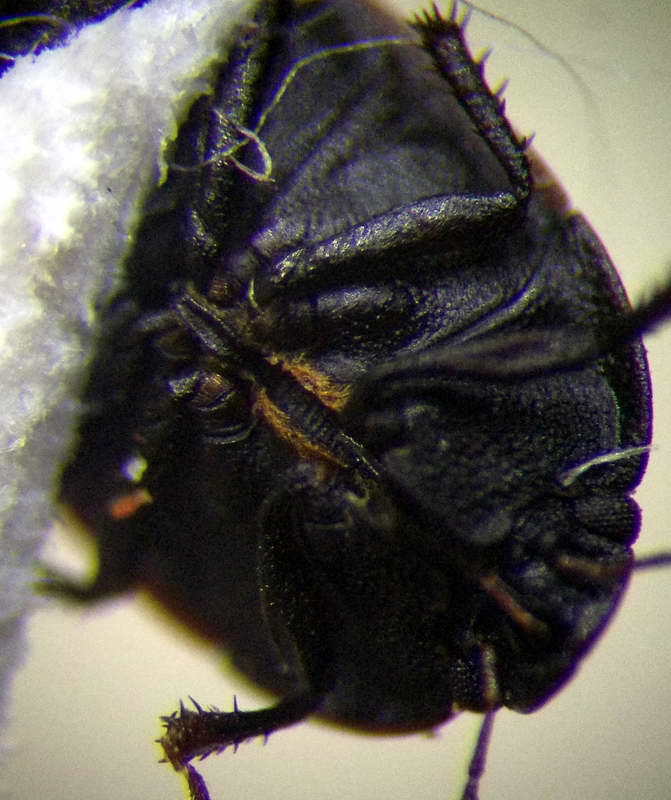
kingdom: Animalia
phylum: Arthropoda
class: Insecta
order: Hemiptera
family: Cydnidae
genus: Ochetostethus
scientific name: Ochetostethus opacus
